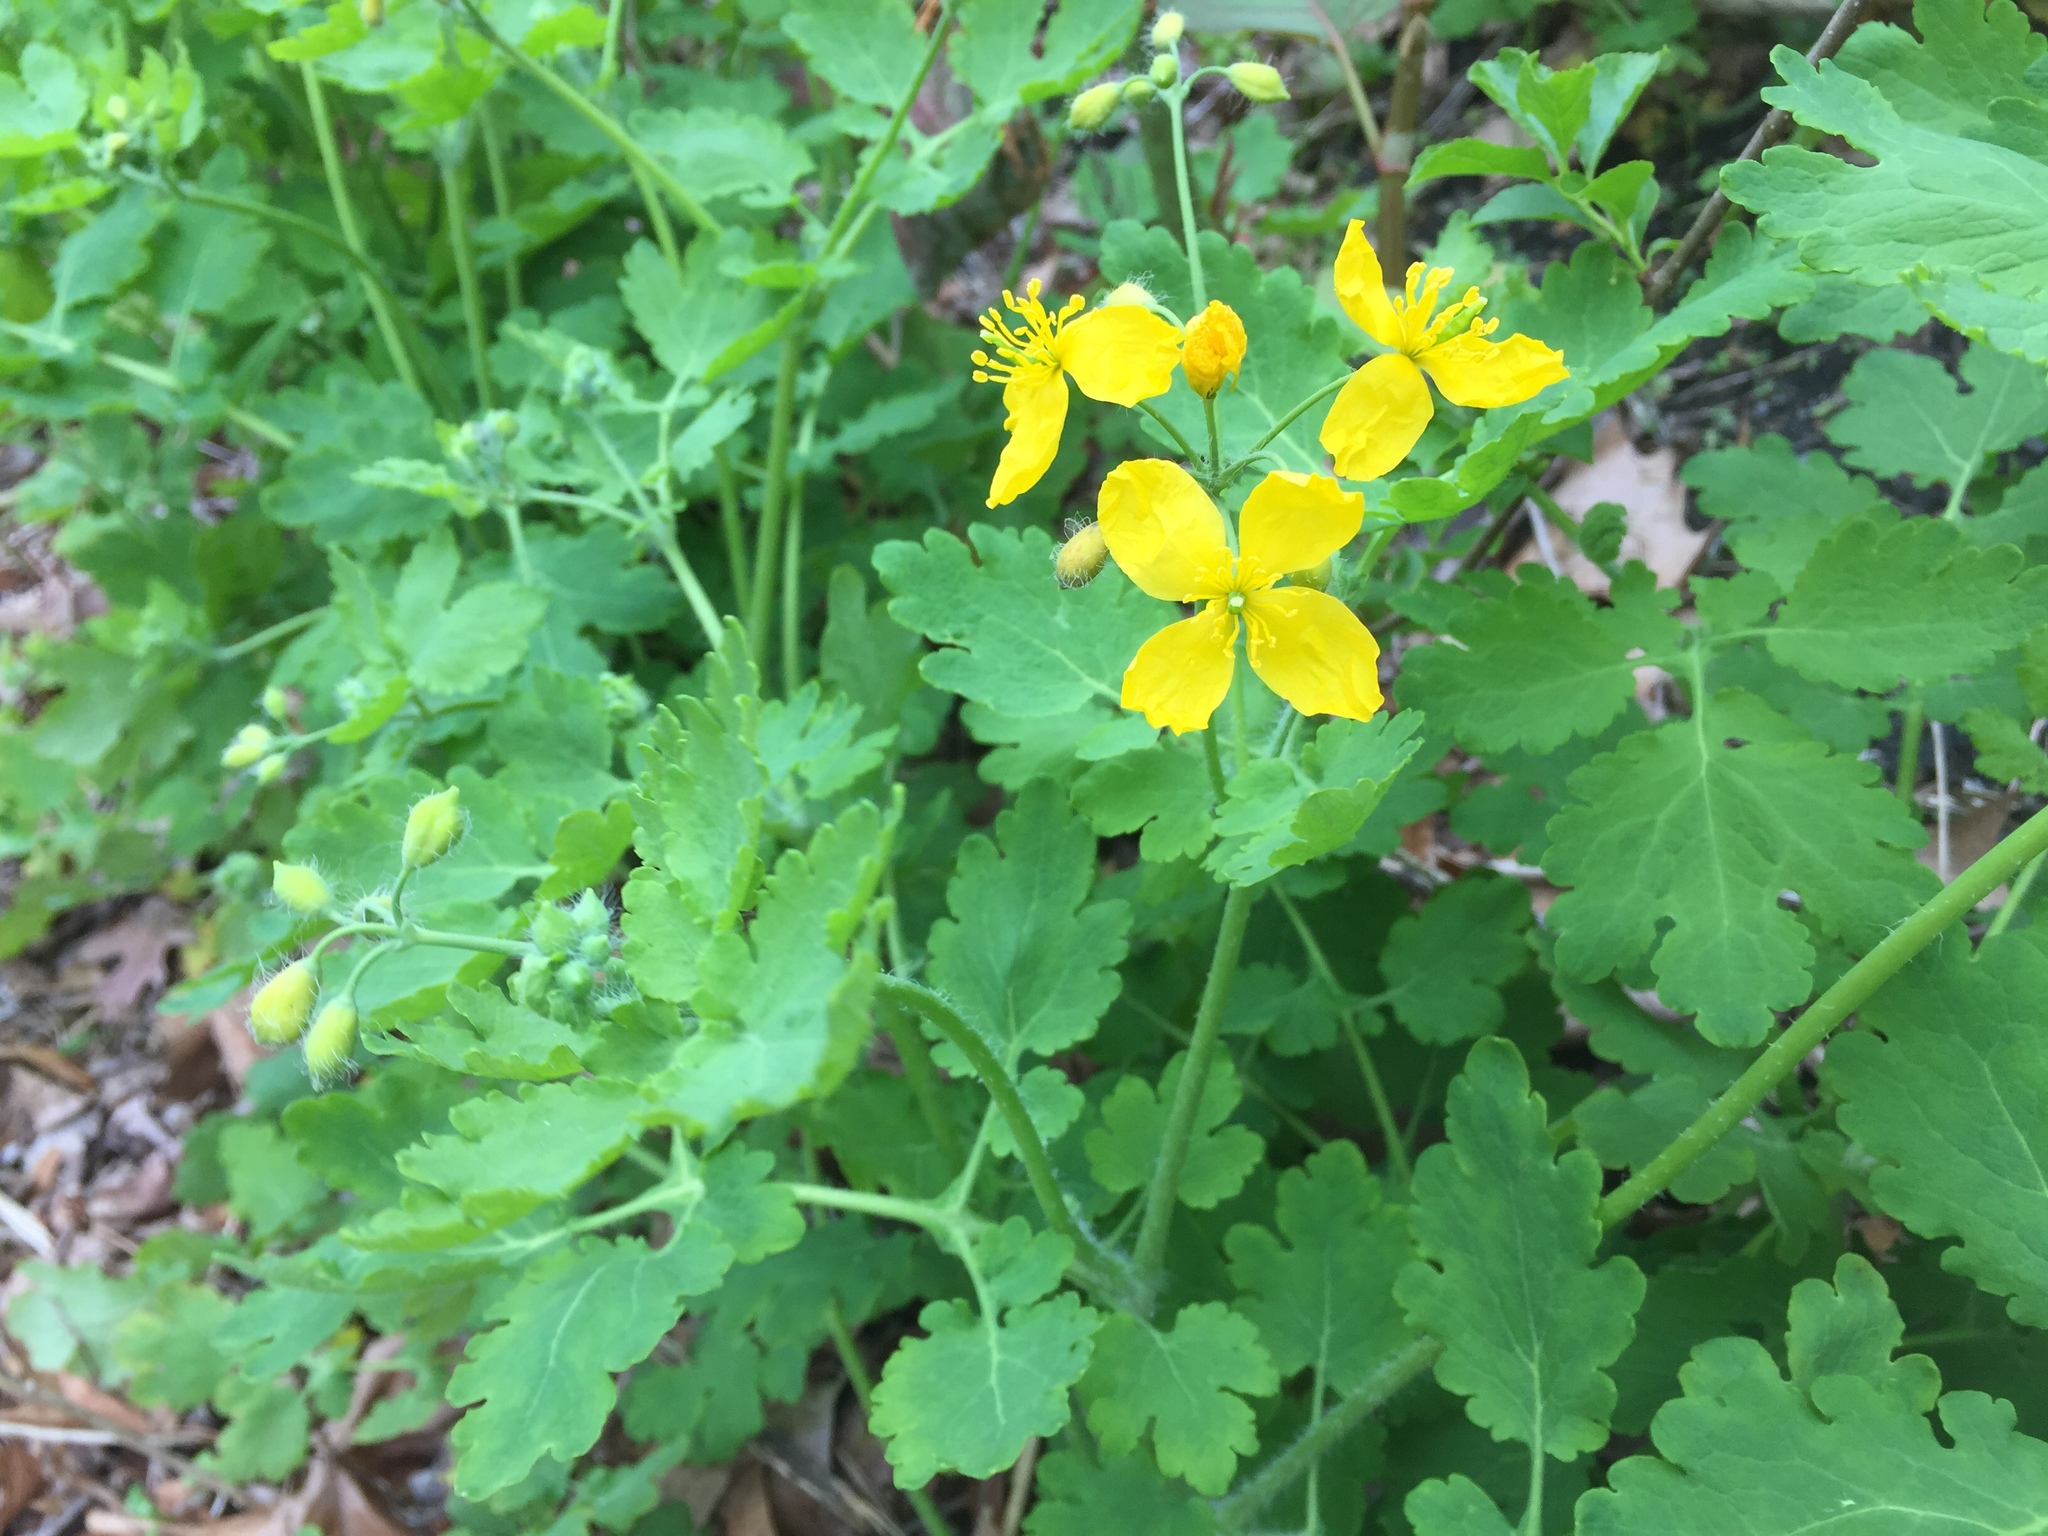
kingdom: Plantae
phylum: Tracheophyta
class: Magnoliopsida
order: Ranunculales
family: Papaveraceae
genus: Chelidonium
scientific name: Chelidonium majus
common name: Greater celandine
